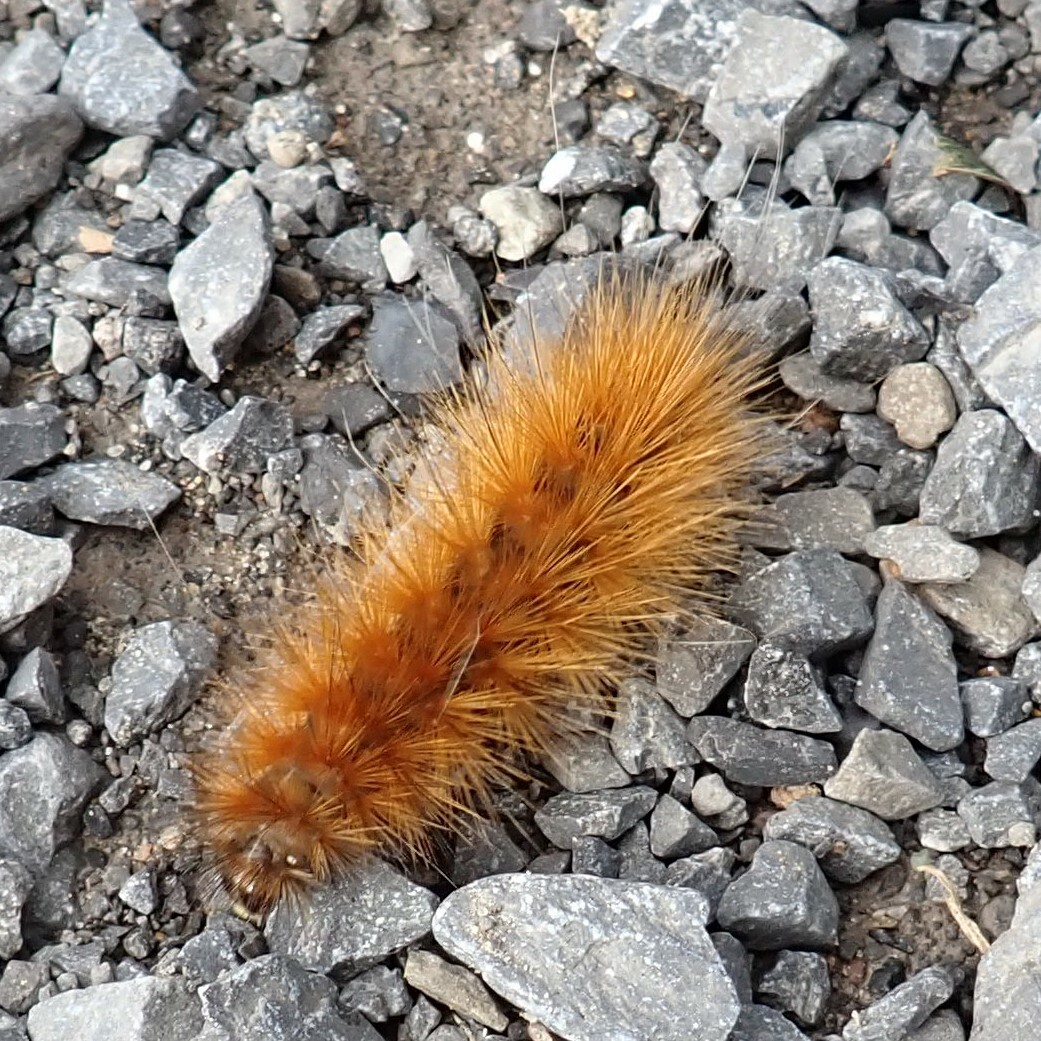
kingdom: Animalia
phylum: Arthropoda
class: Insecta
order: Lepidoptera
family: Erebidae
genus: Spilosoma
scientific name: Spilosoma virginica
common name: Virginia tiger moth
